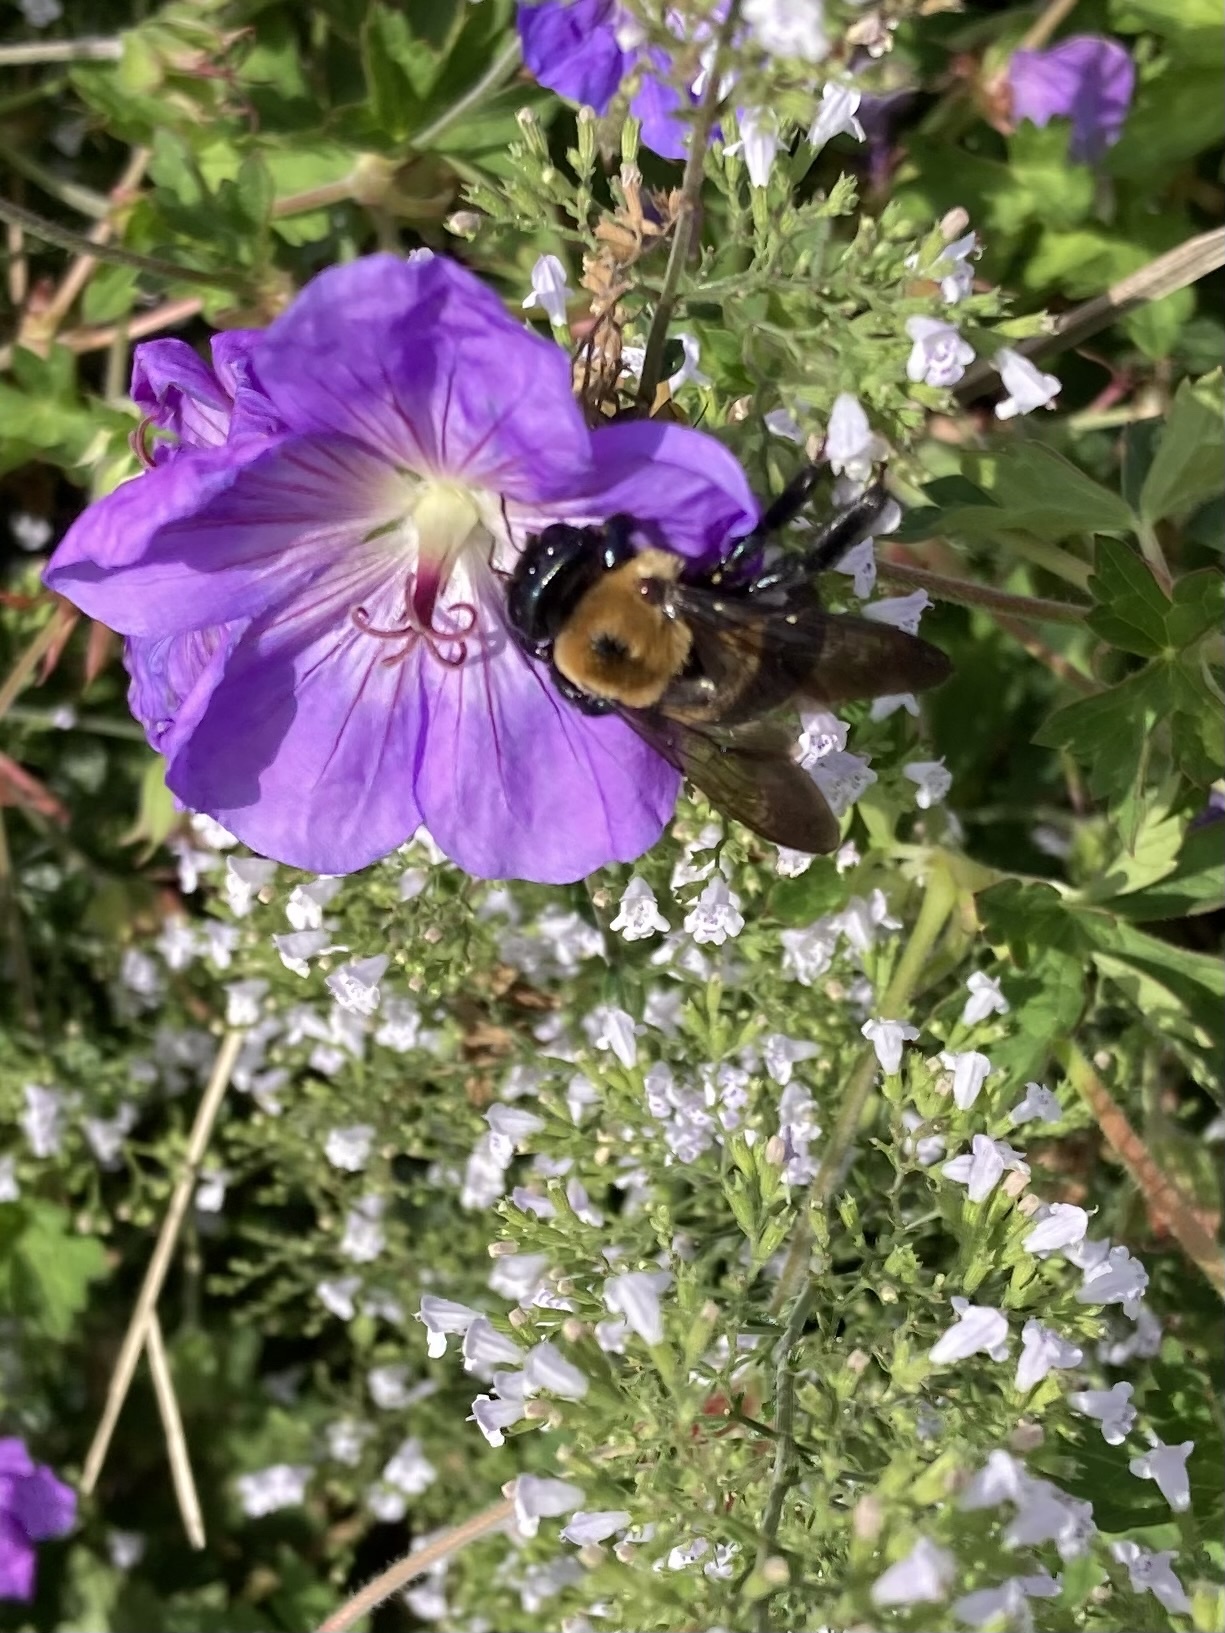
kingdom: Animalia
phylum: Arthropoda
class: Insecta
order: Hymenoptera
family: Apidae
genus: Xylocopa
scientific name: Xylocopa virginica
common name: Carpenter bee
